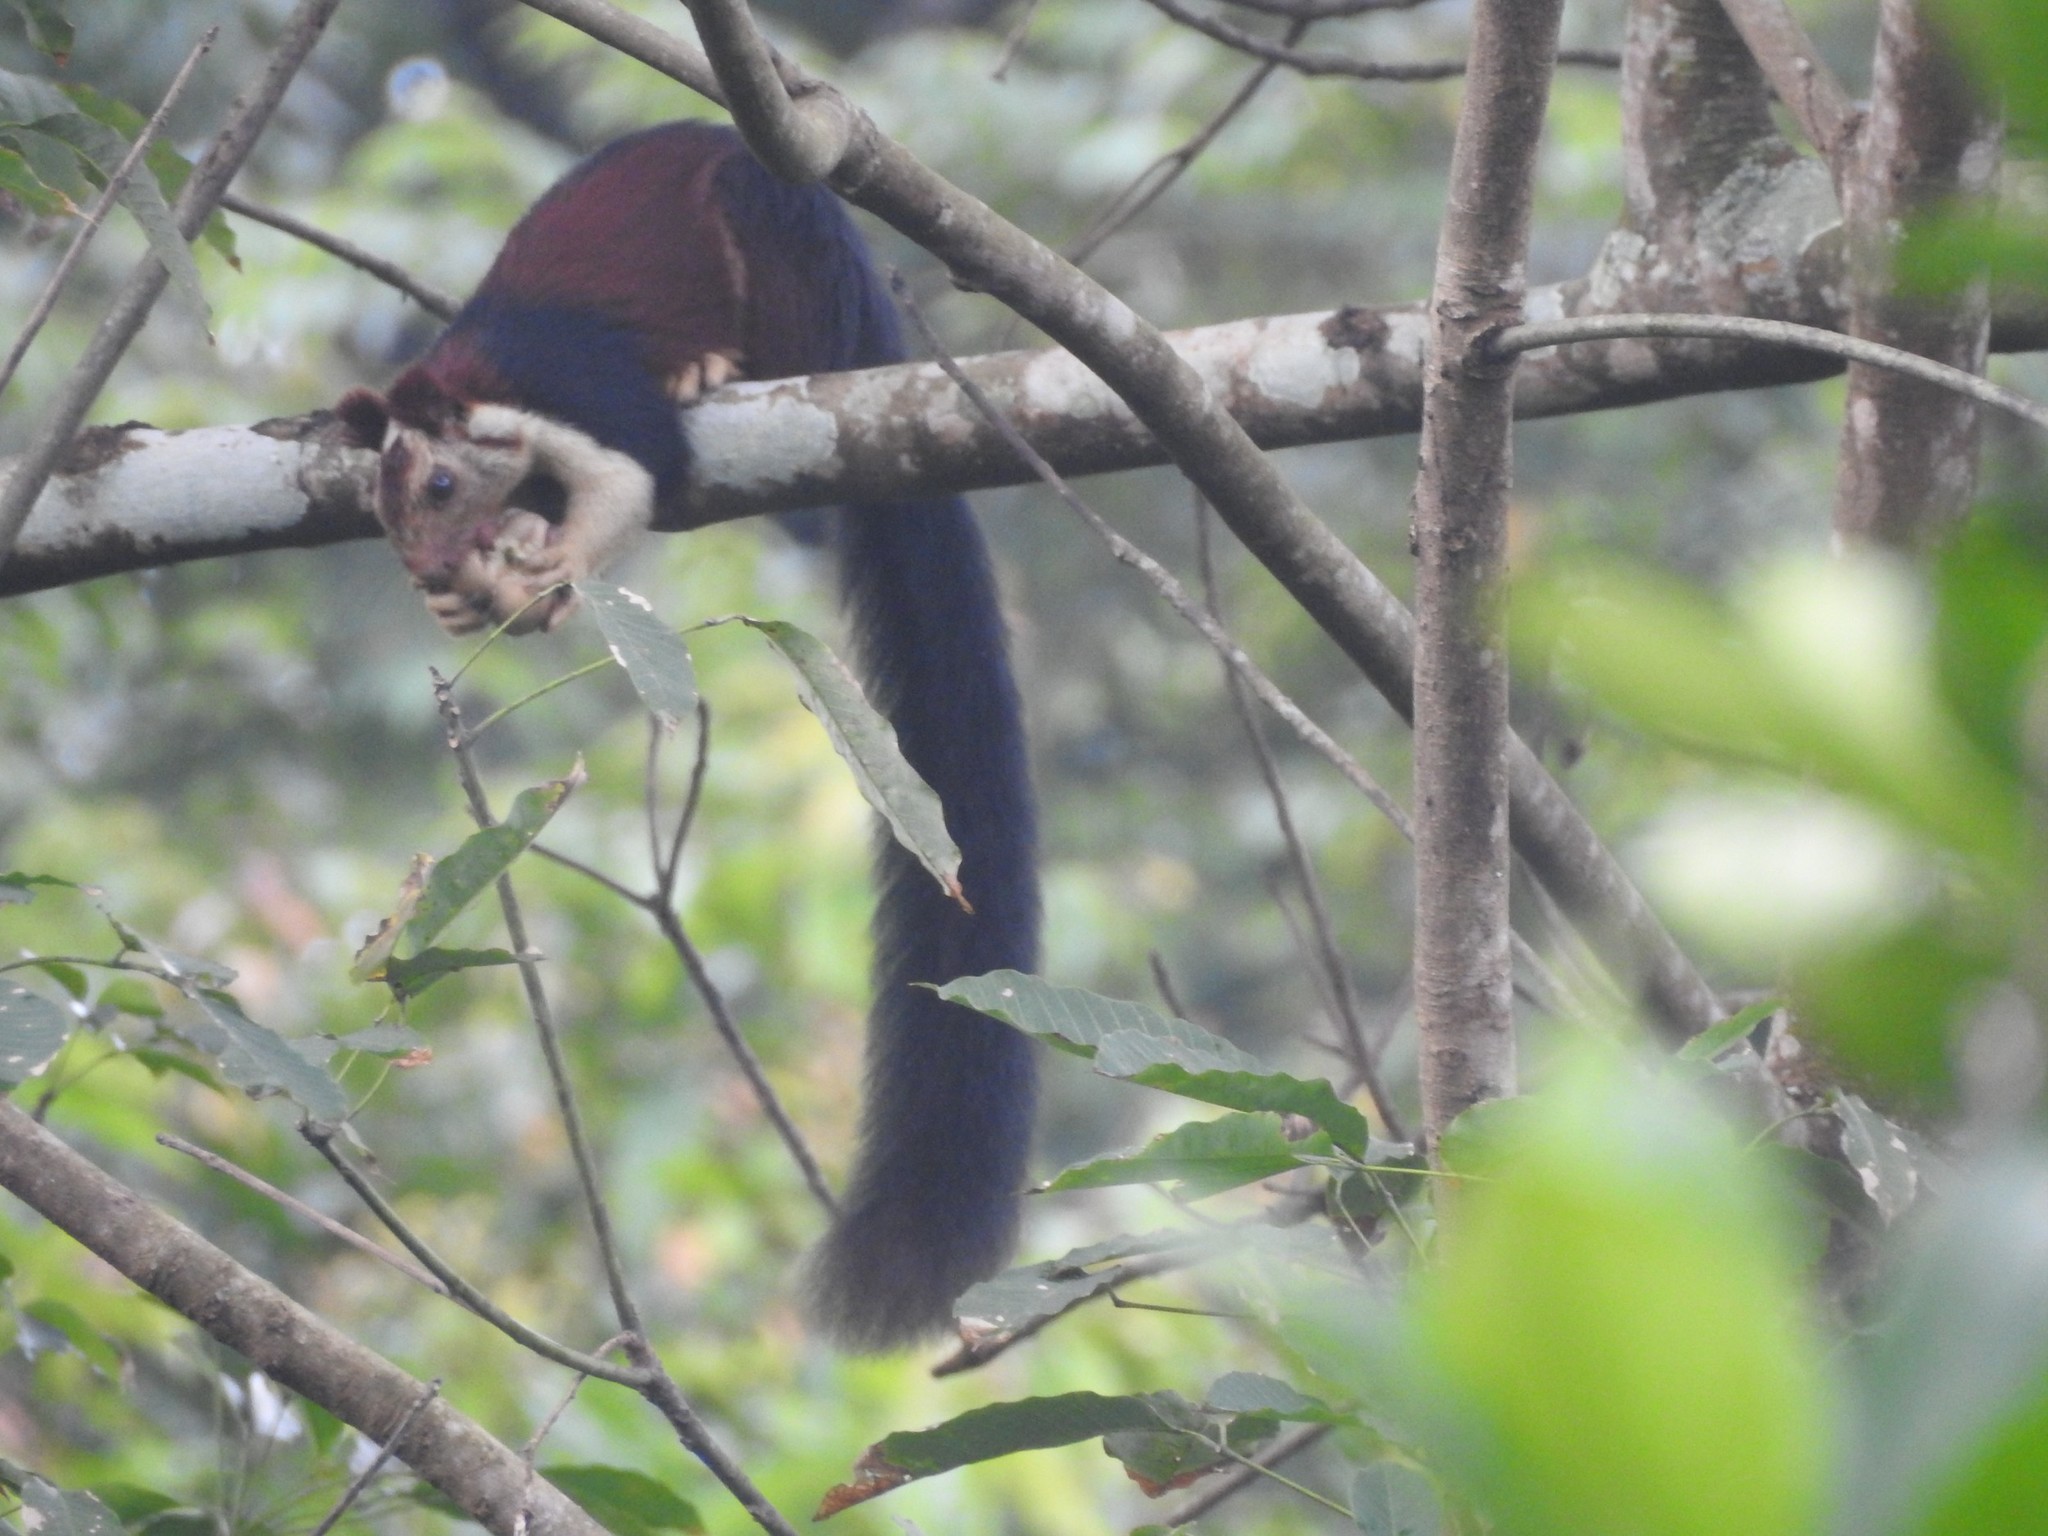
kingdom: Animalia
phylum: Chordata
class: Mammalia
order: Rodentia
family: Sciuridae
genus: Ratufa
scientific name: Ratufa indica
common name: Indian giant squirrel
